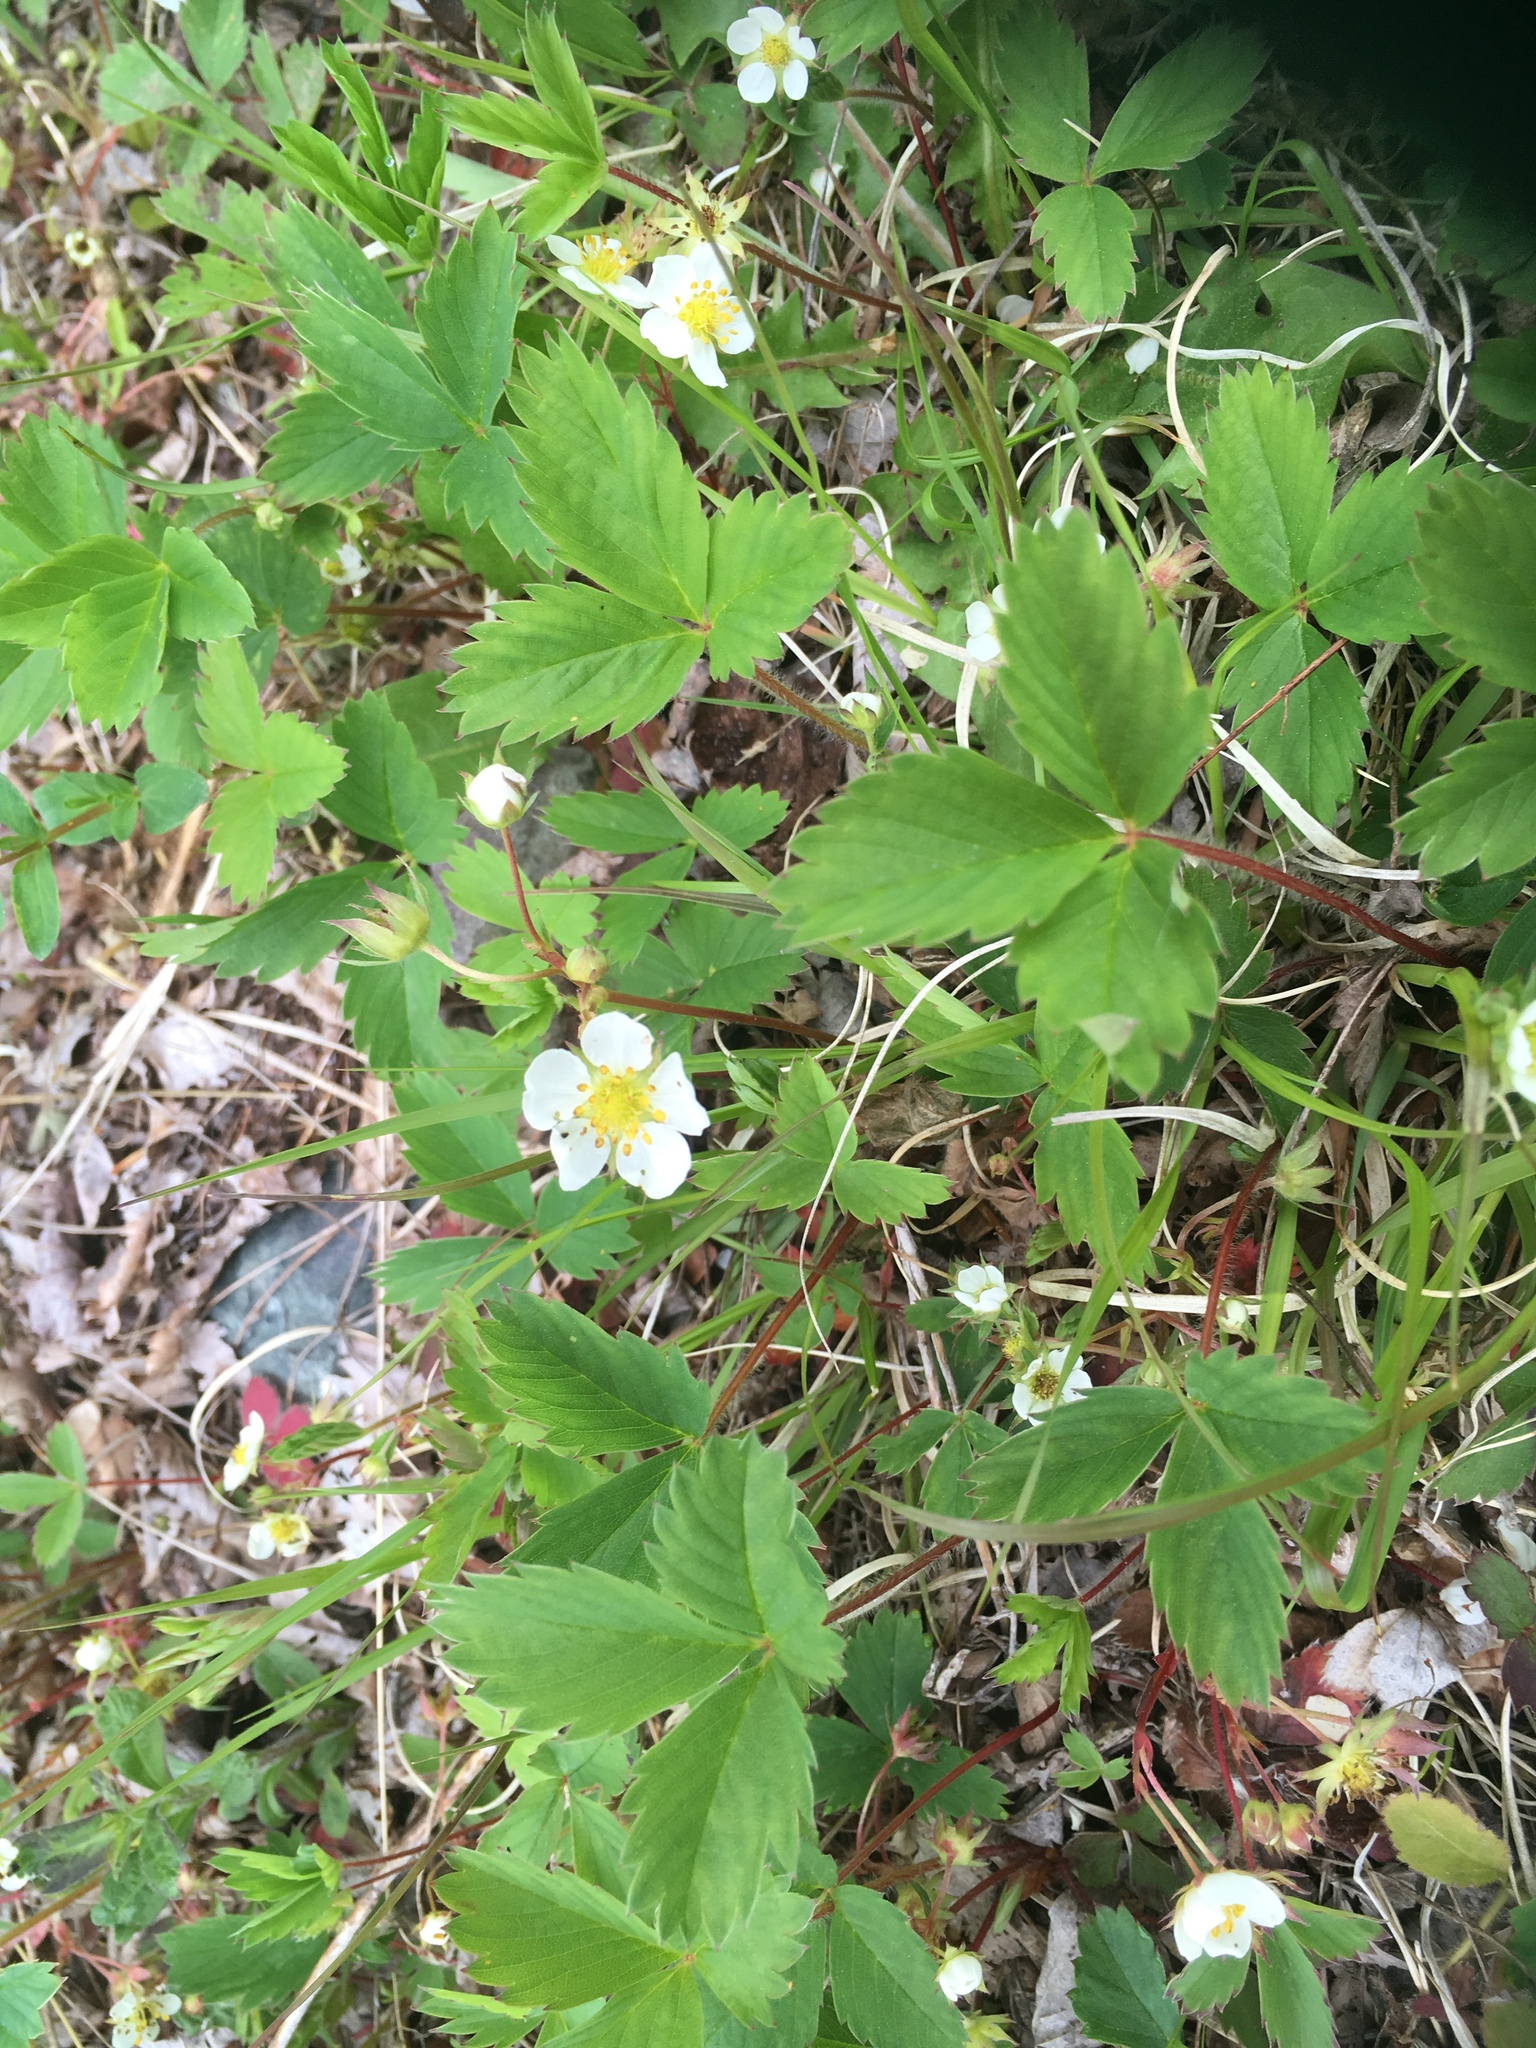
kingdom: Plantae
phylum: Tracheophyta
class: Magnoliopsida
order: Rosales
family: Rosaceae
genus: Fragaria
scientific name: Fragaria virginiana
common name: Thickleaved wild strawberry
